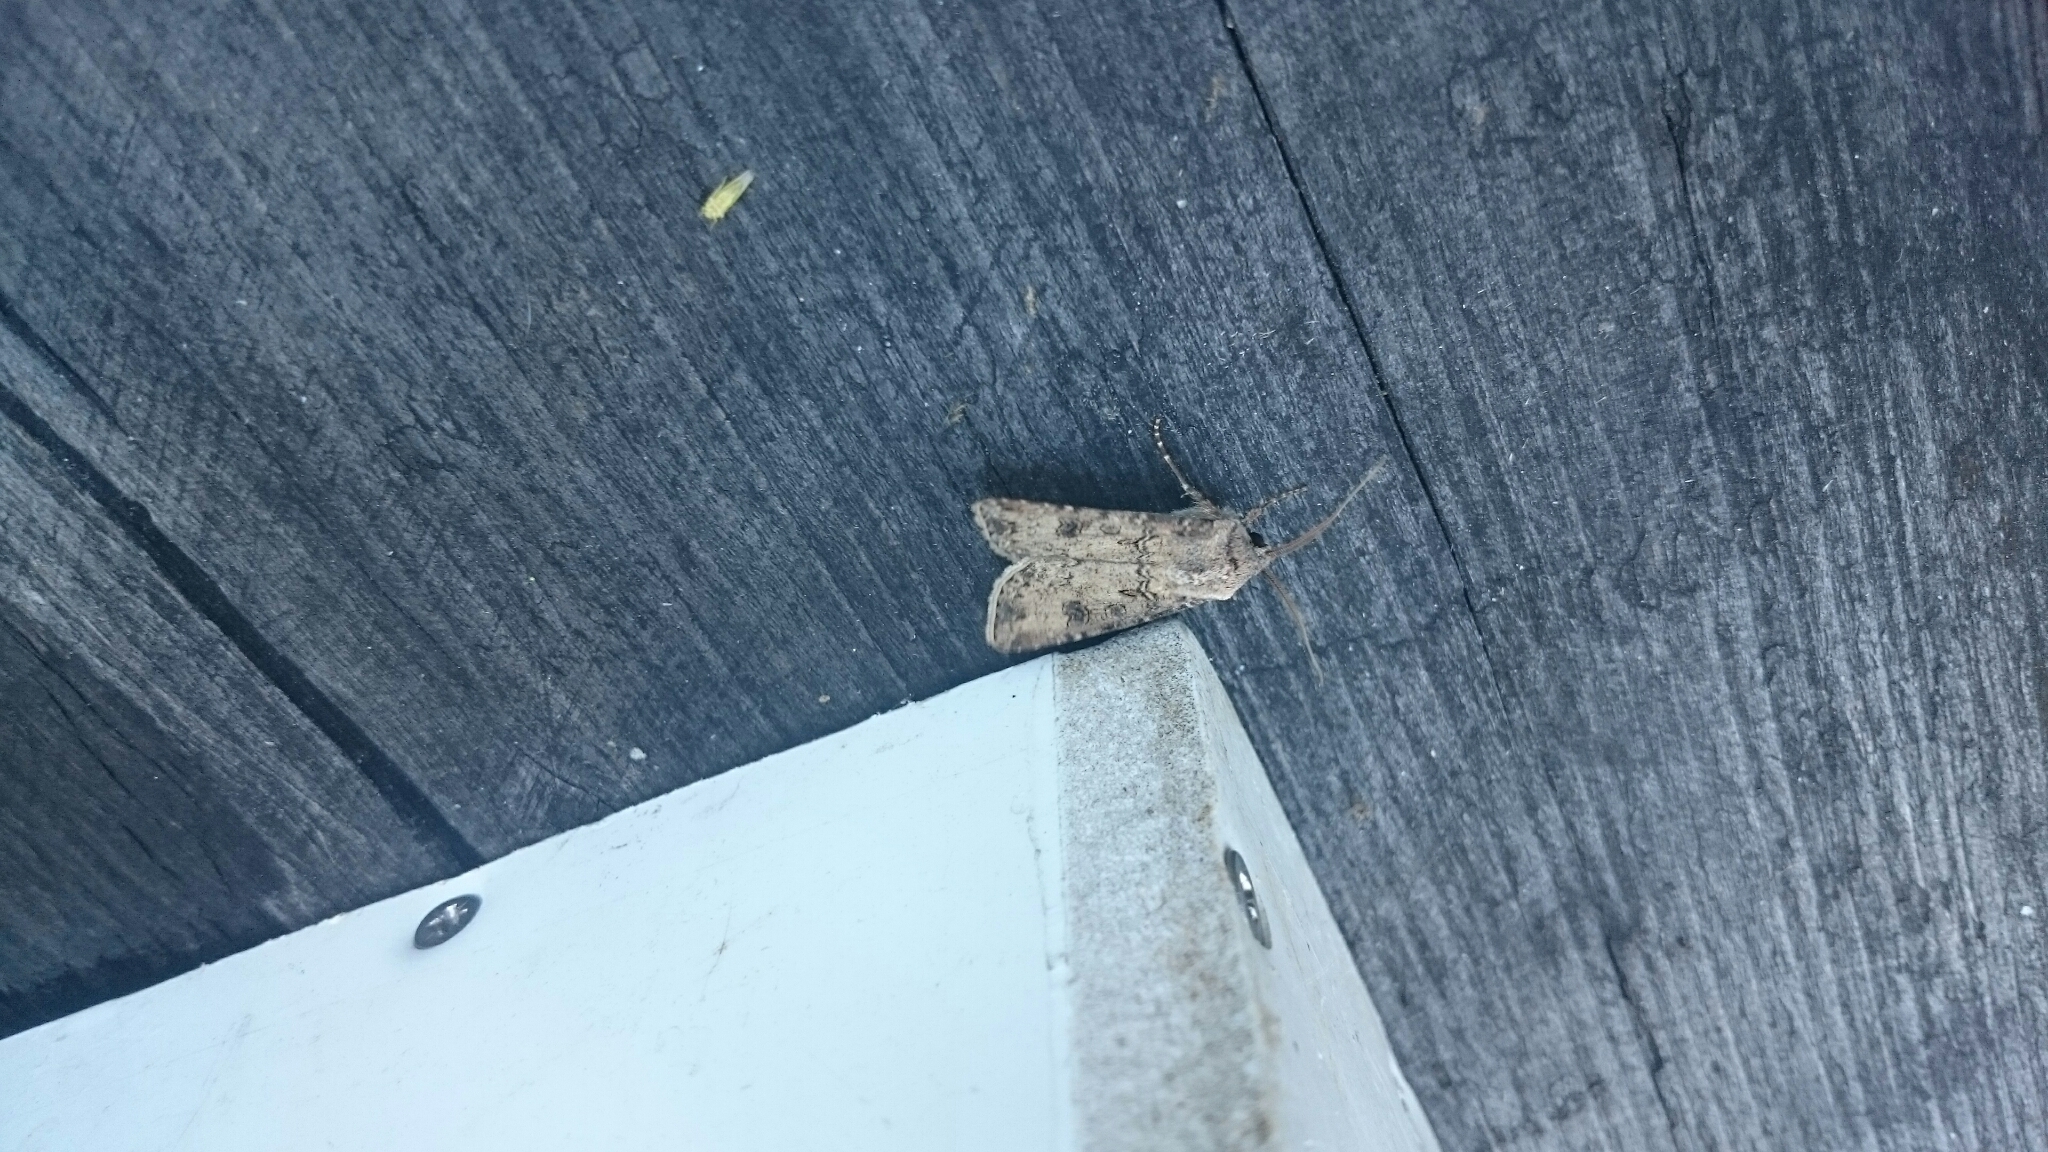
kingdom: Animalia
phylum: Arthropoda
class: Insecta
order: Lepidoptera
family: Noctuidae
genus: Agrotis
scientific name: Agrotis segetum
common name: Turnip moth
